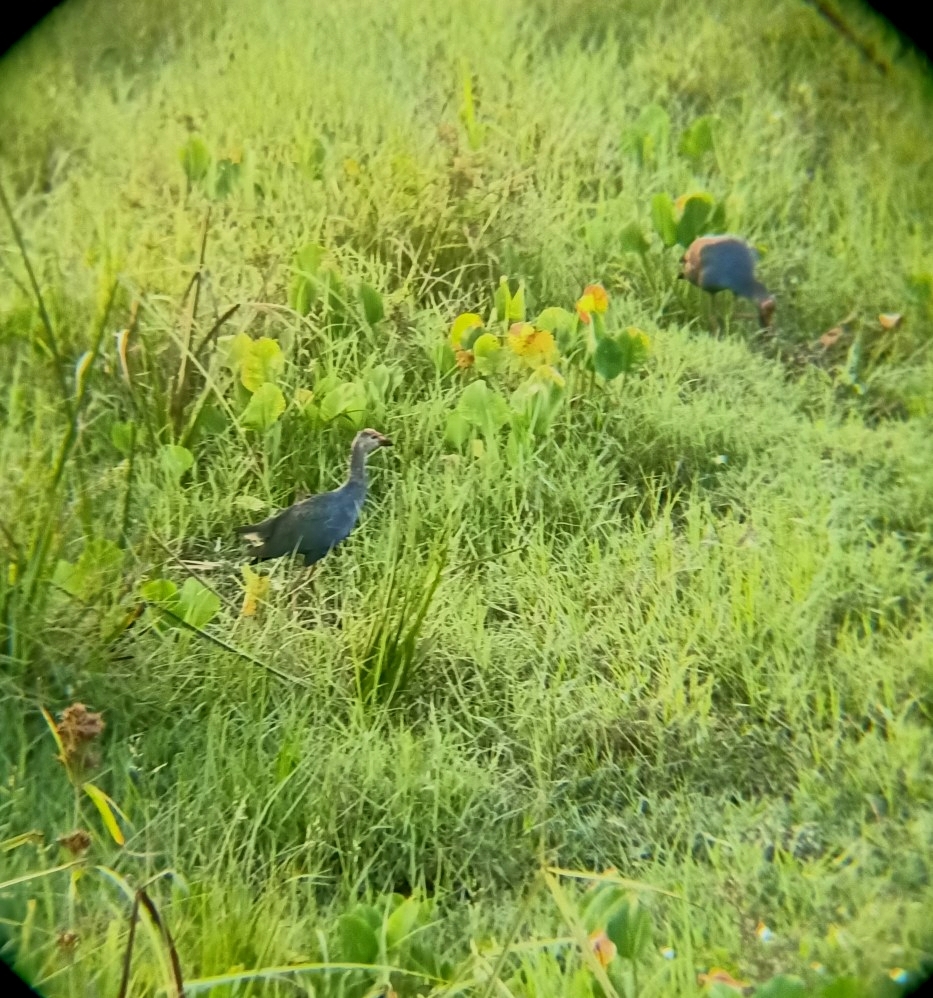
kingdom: Animalia
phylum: Chordata
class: Aves
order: Gruiformes
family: Rallidae
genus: Porphyrio
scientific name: Porphyrio porphyrio
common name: Purple swamphen
